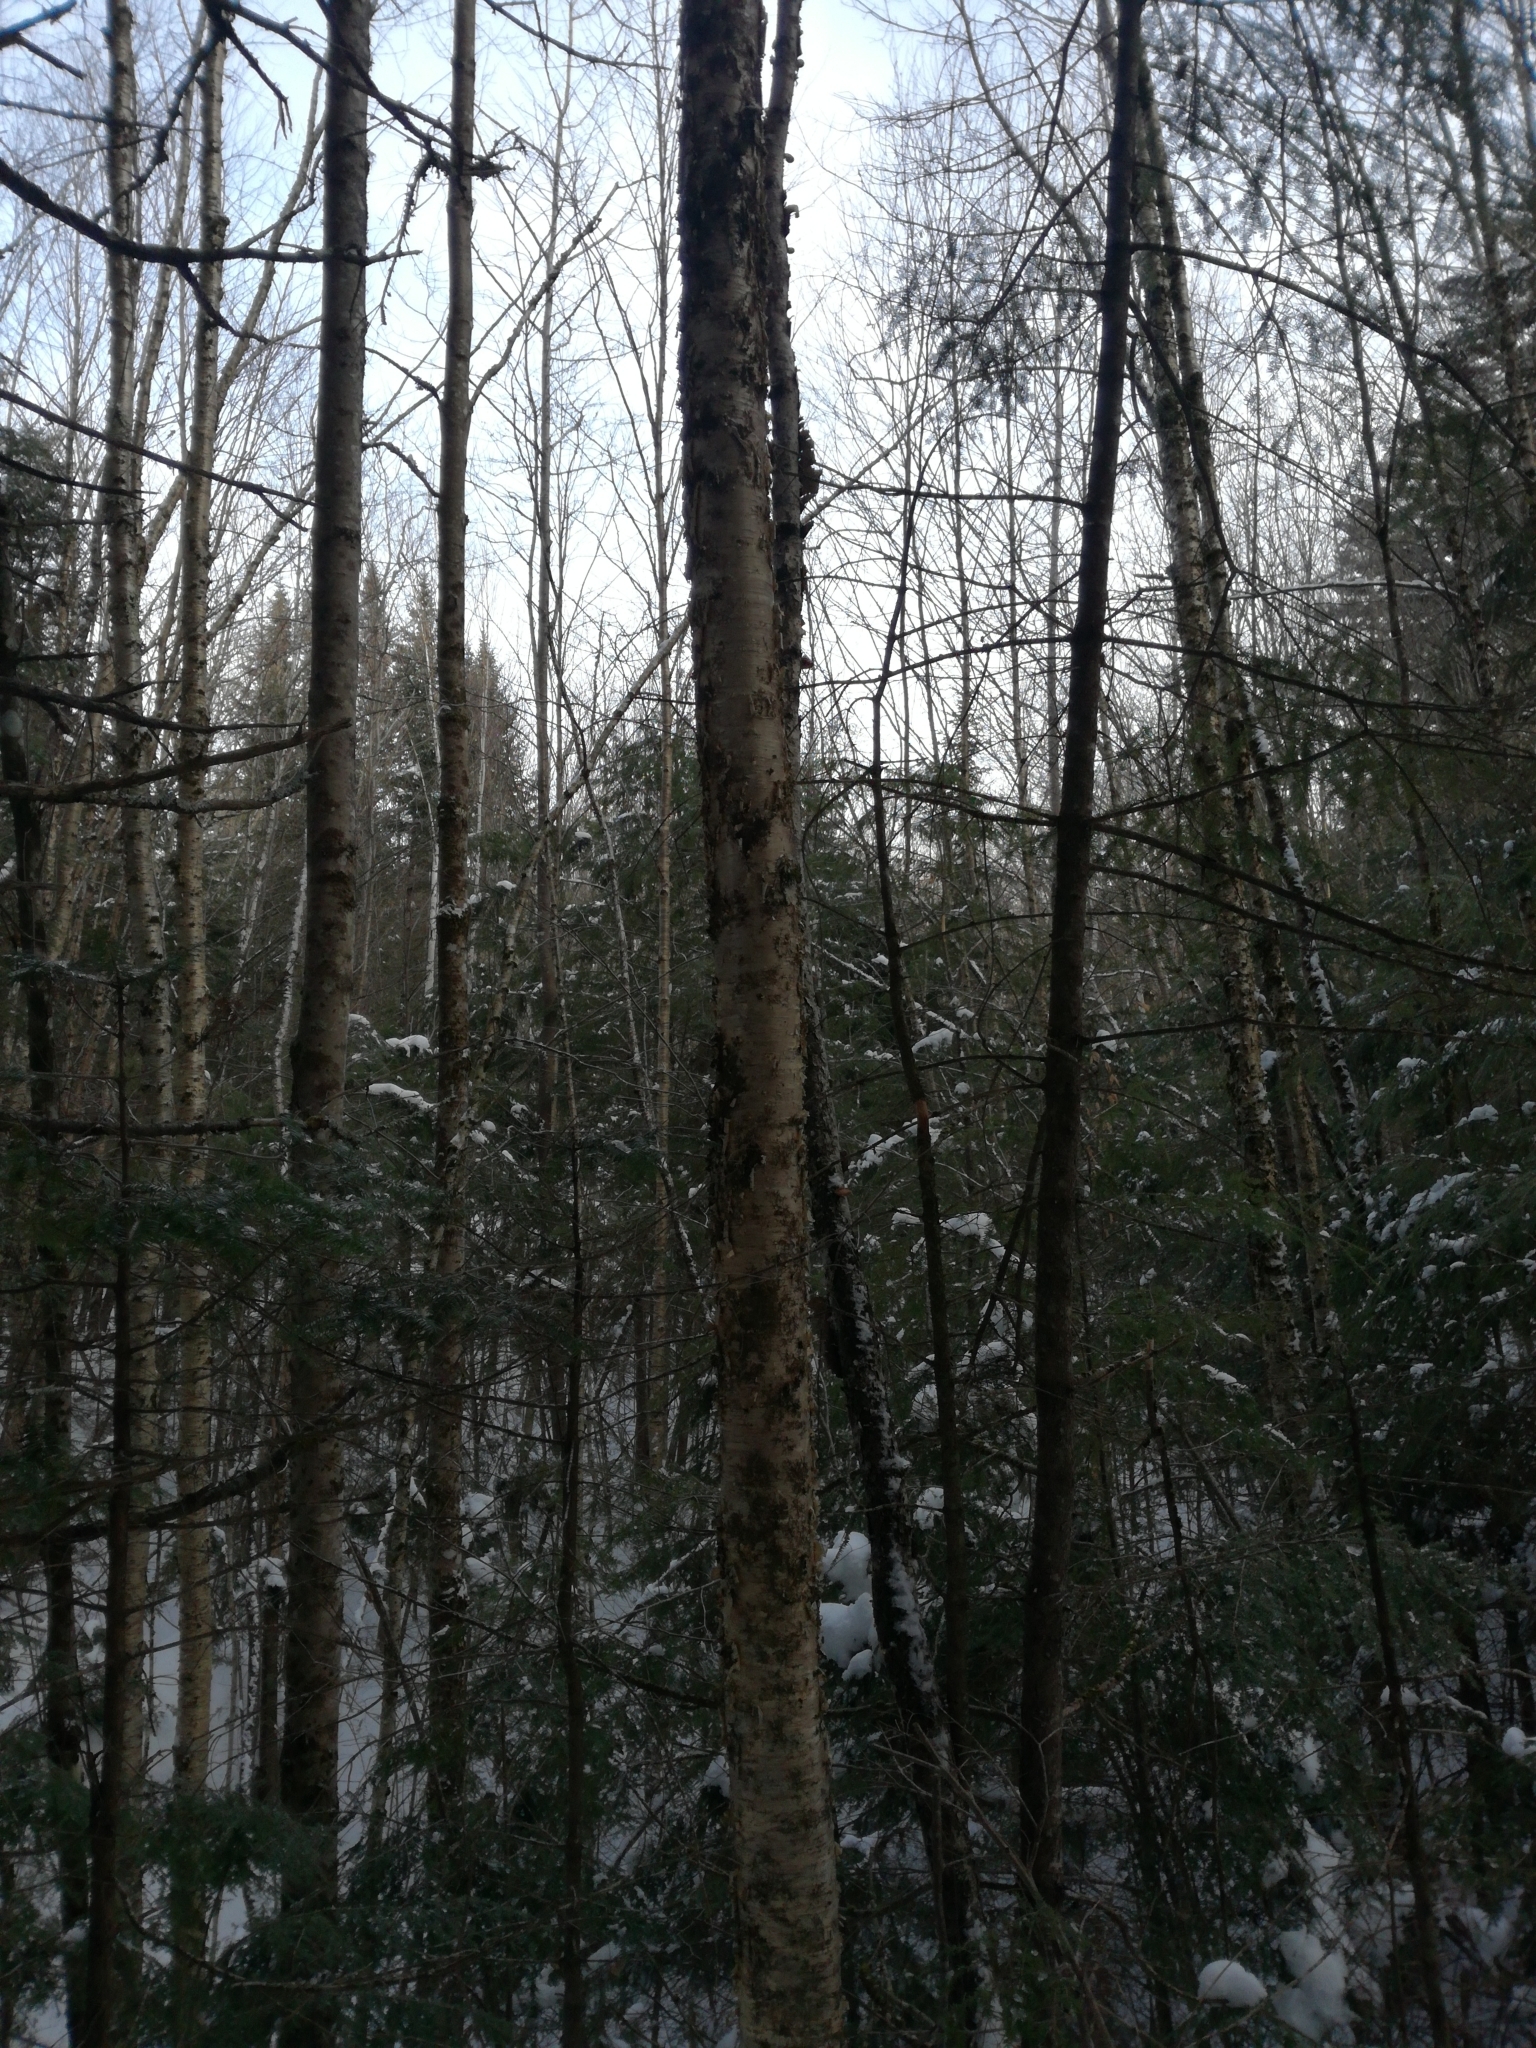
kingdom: Plantae
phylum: Tracheophyta
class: Magnoliopsida
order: Fagales
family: Betulaceae
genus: Betula
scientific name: Betula alleghaniensis
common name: Yellow birch
